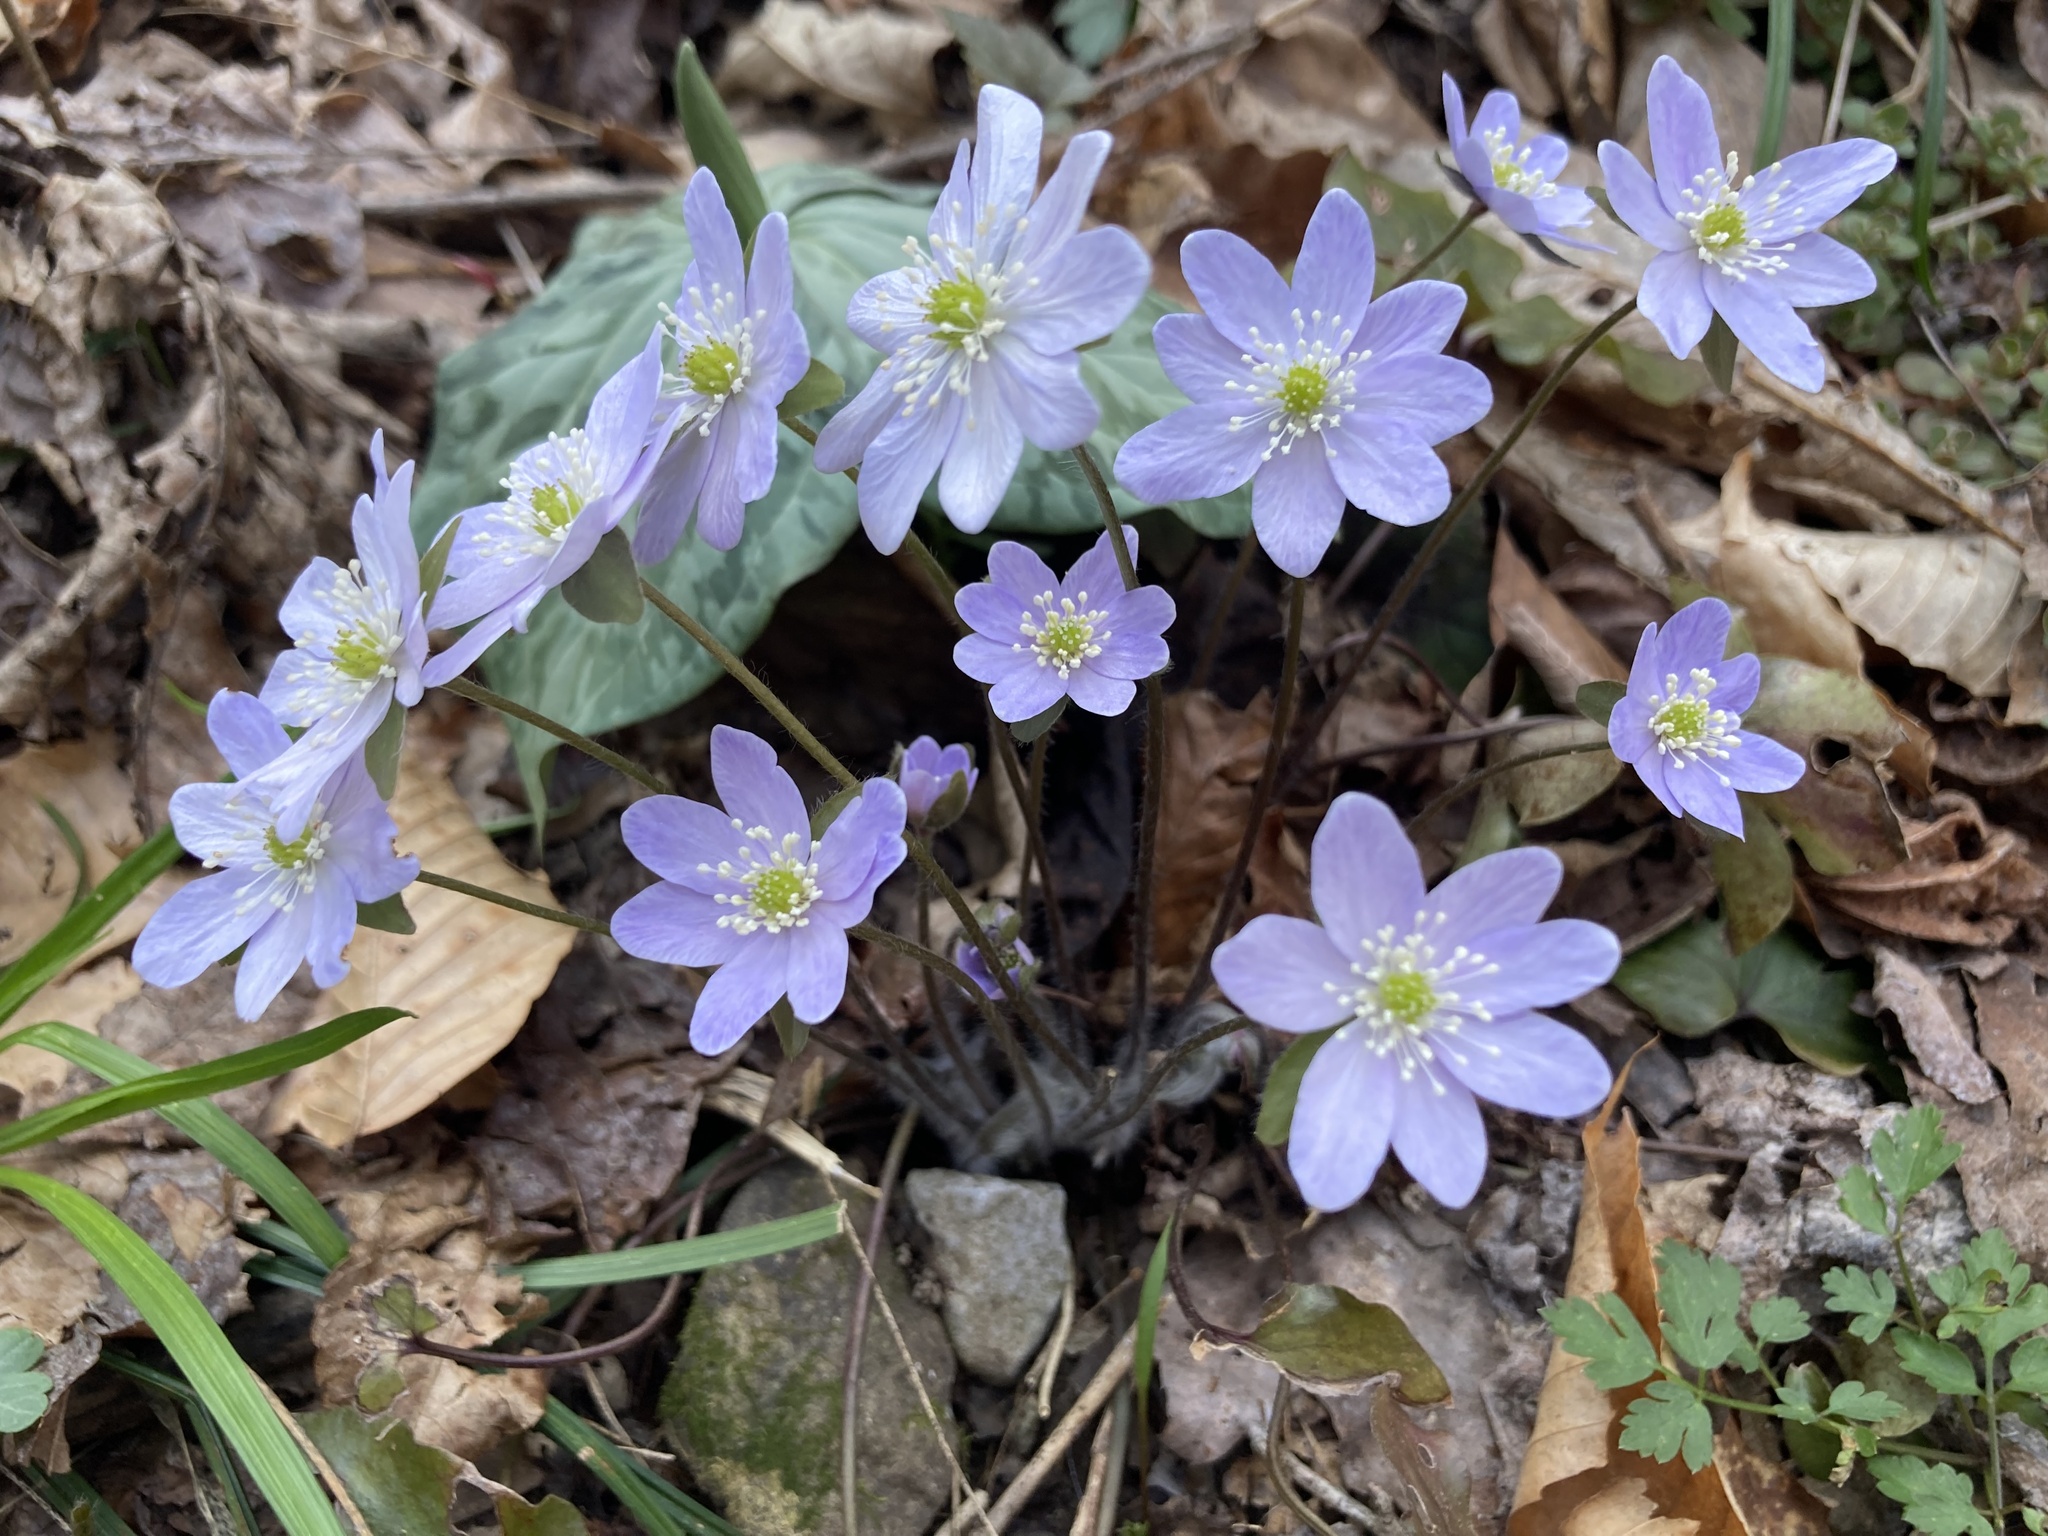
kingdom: Plantae
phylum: Tracheophyta
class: Magnoliopsida
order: Ranunculales
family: Ranunculaceae
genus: Hepatica
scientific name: Hepatica acutiloba
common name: Sharp-lobed hepatica
